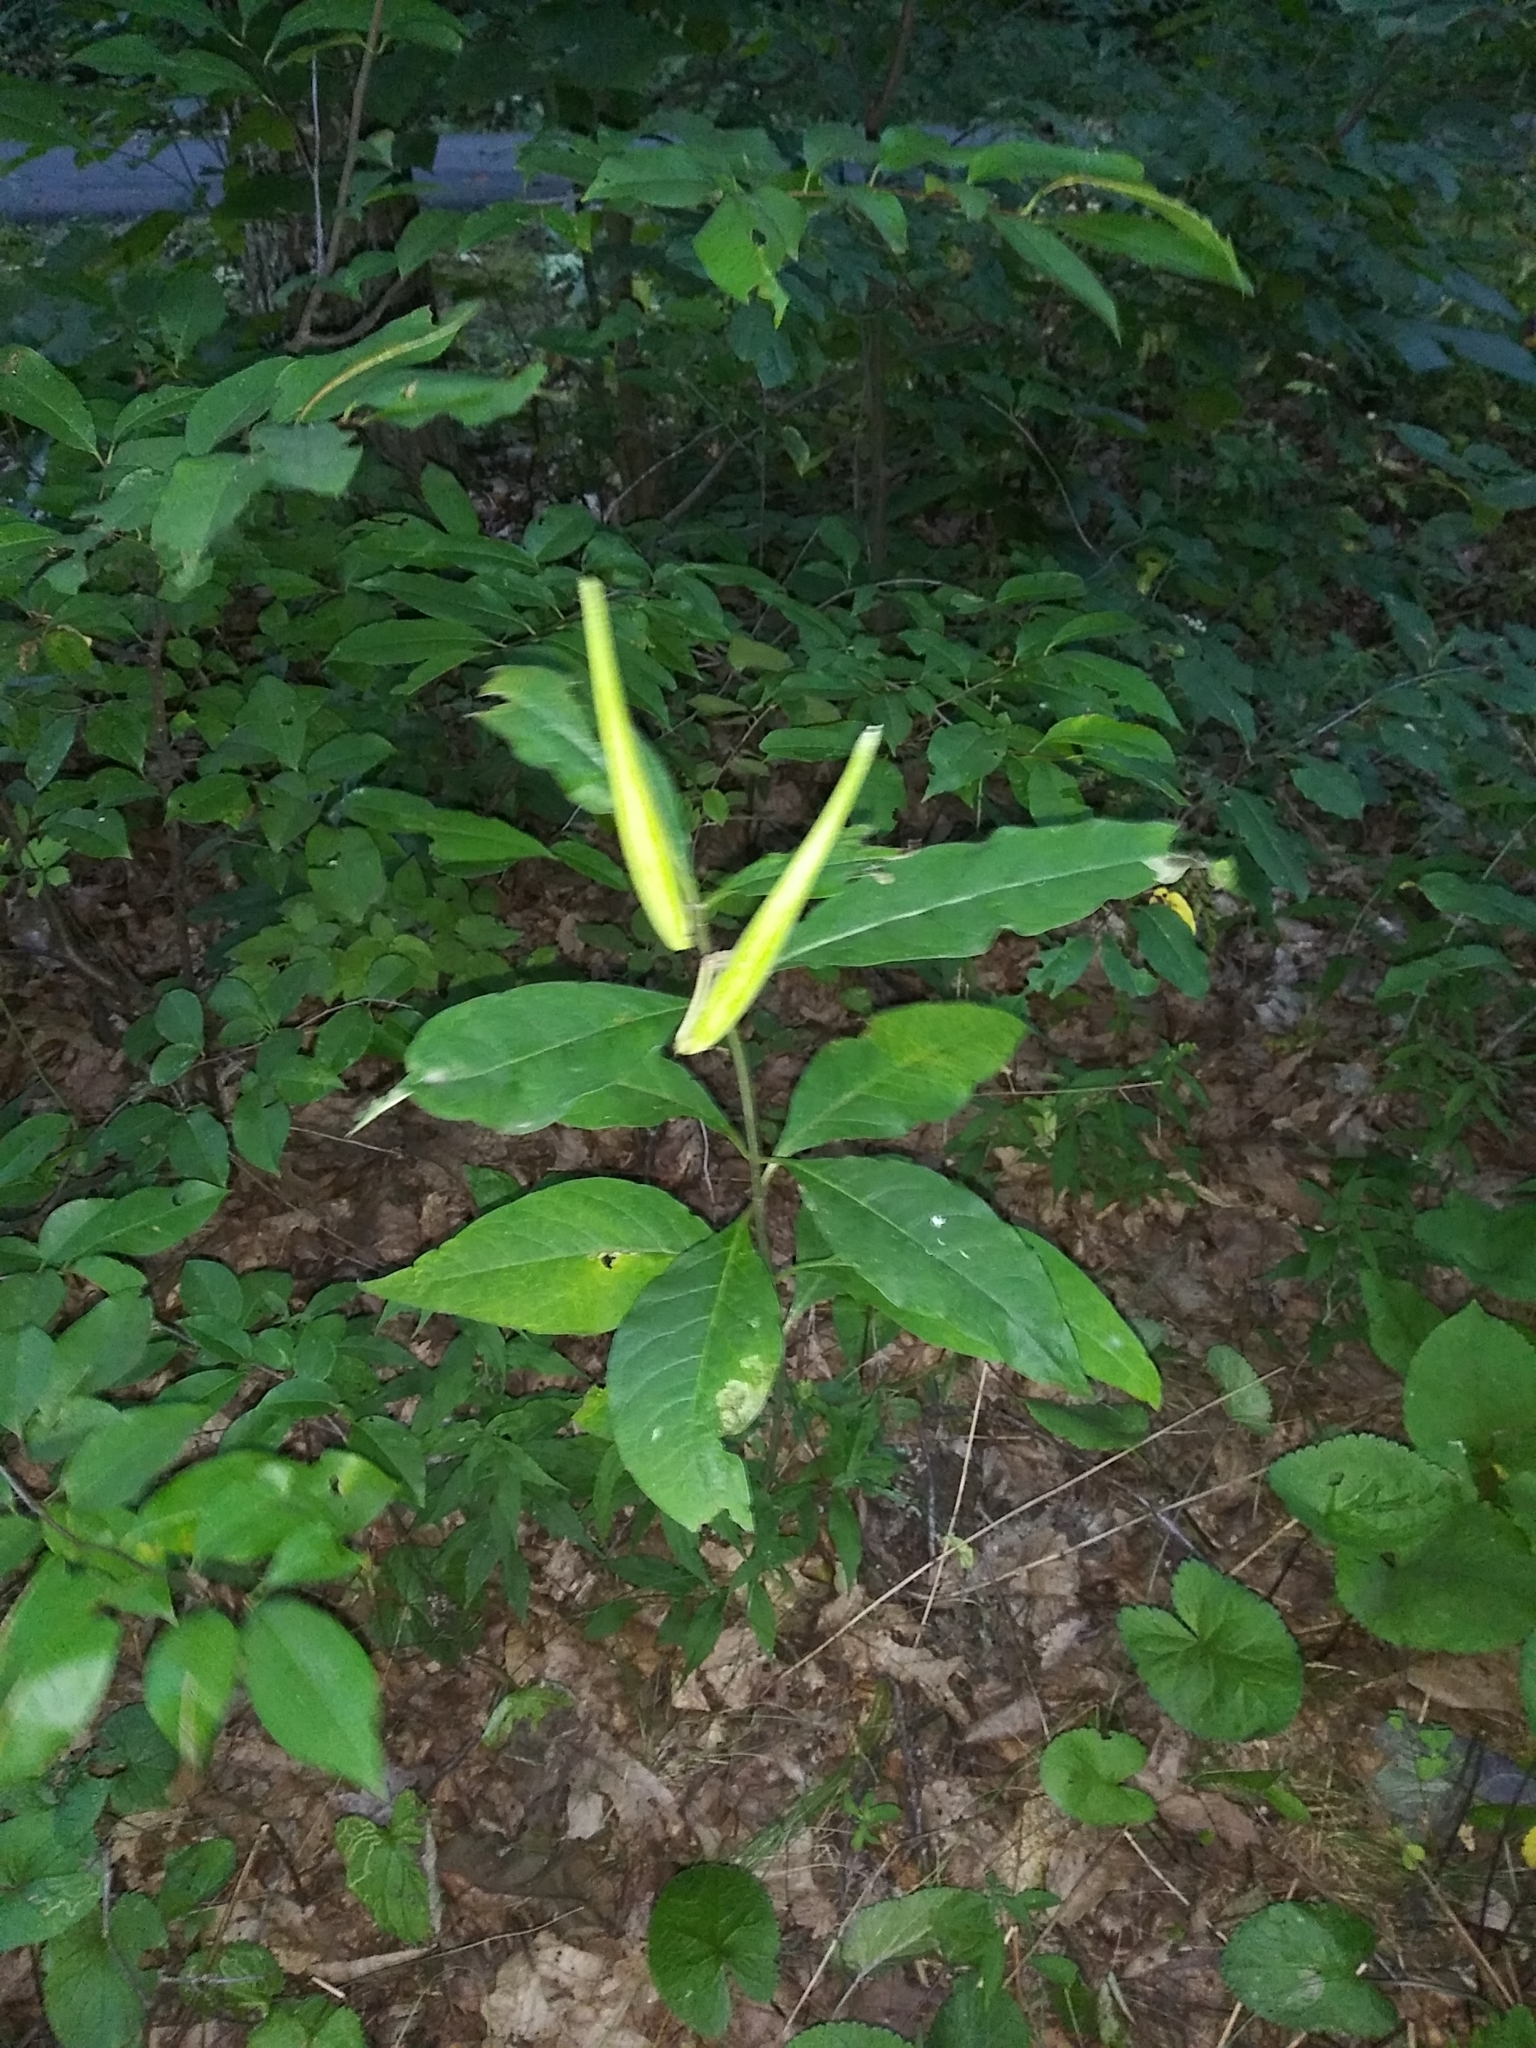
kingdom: Plantae
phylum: Tracheophyta
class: Magnoliopsida
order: Gentianales
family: Apocynaceae
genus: Asclepias
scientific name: Asclepias exaltata
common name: Poke milkweed
